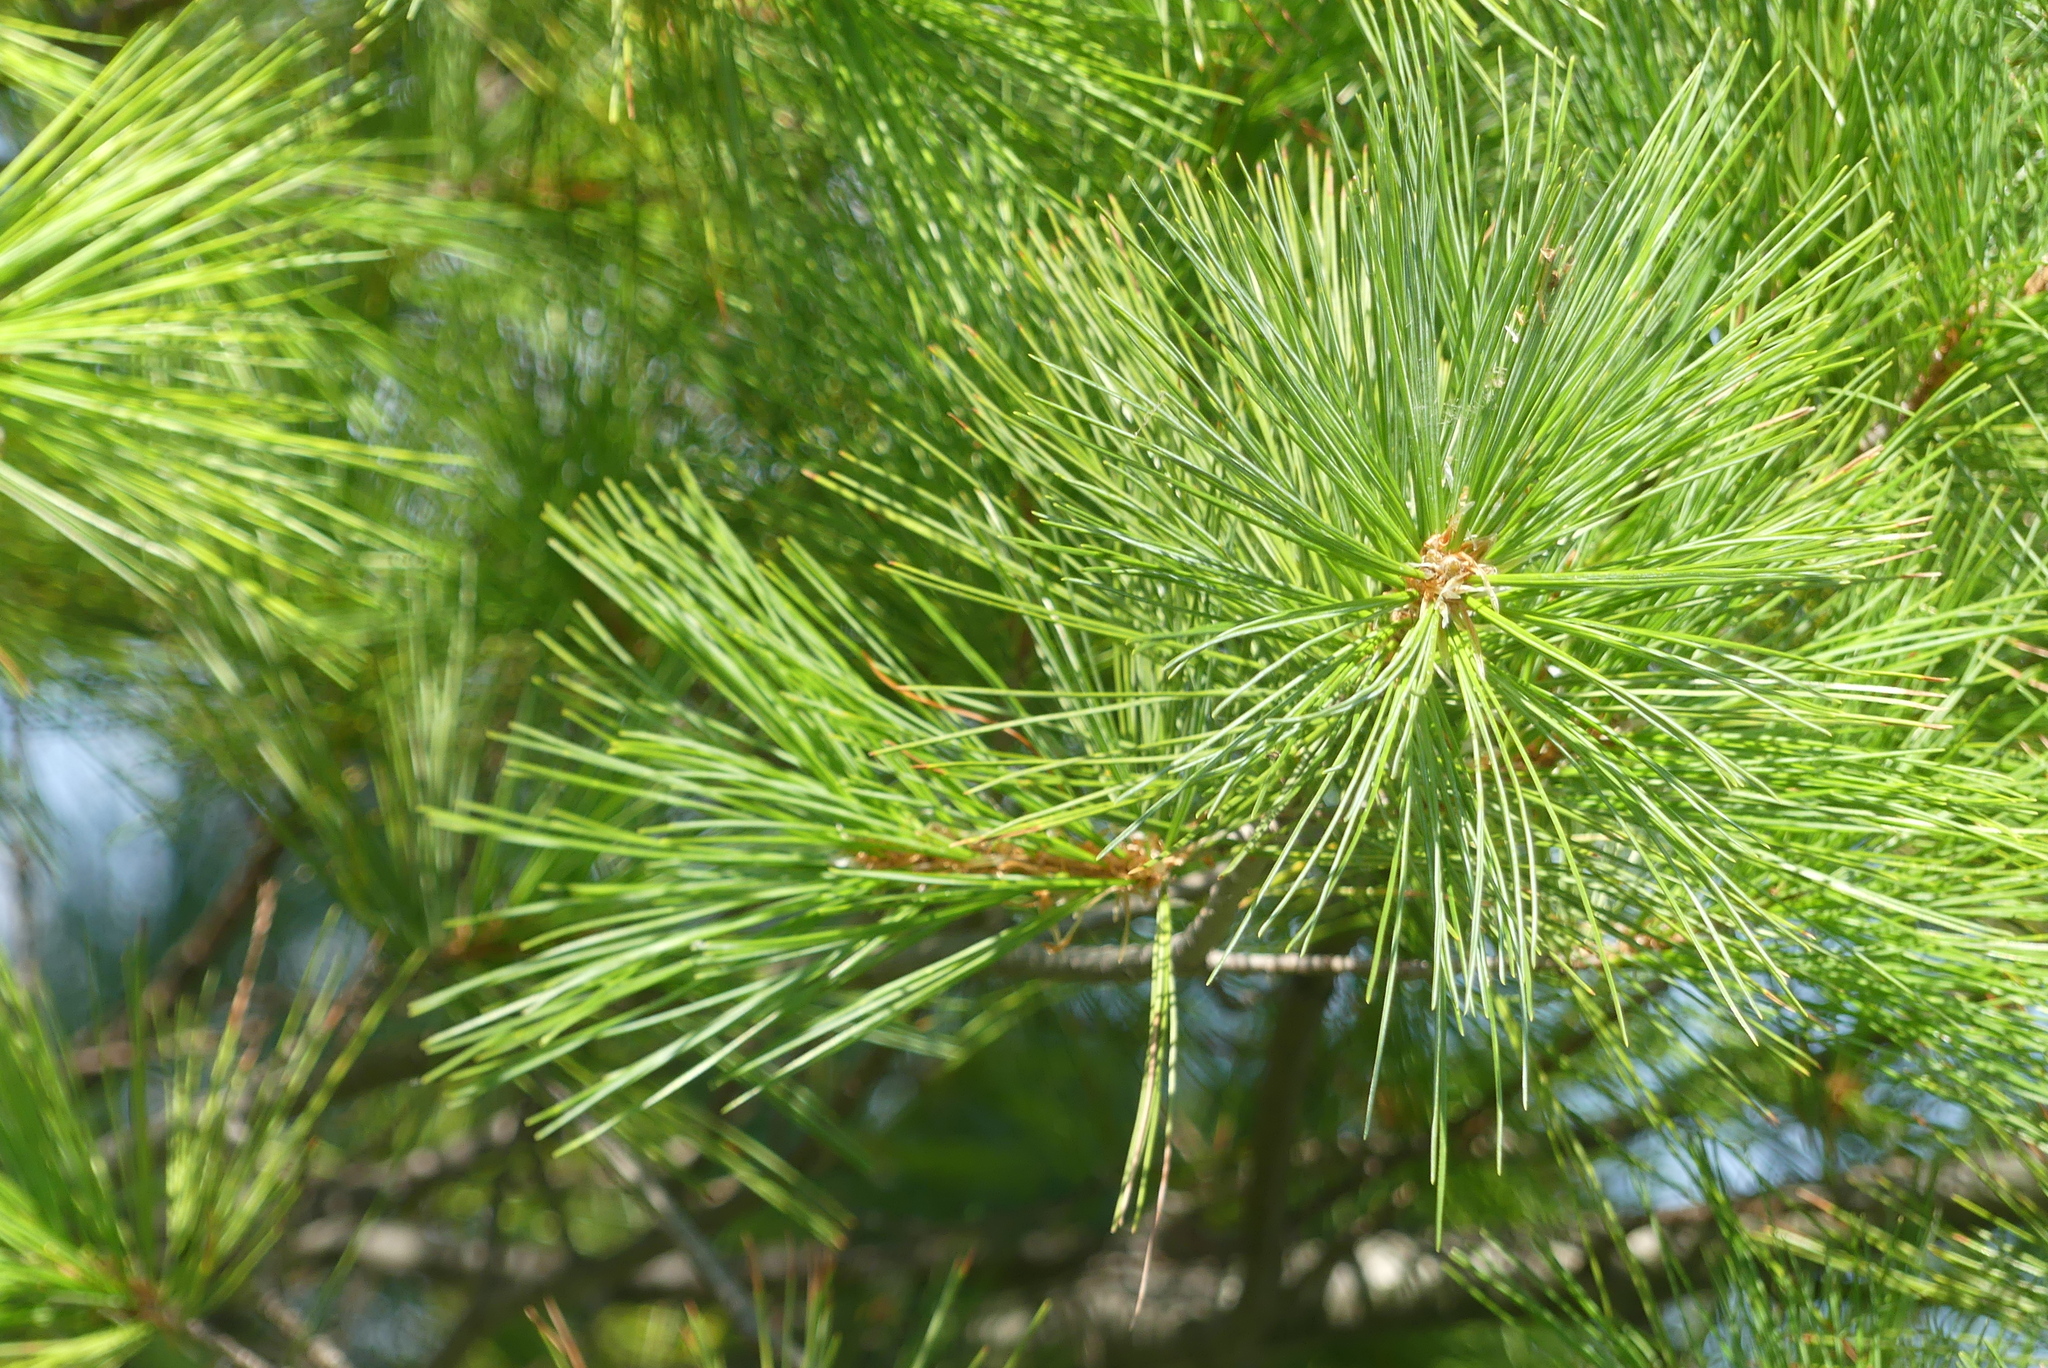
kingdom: Plantae
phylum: Tracheophyta
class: Pinopsida
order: Pinales
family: Pinaceae
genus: Pinus
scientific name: Pinus strobus
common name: Weymouth pine
